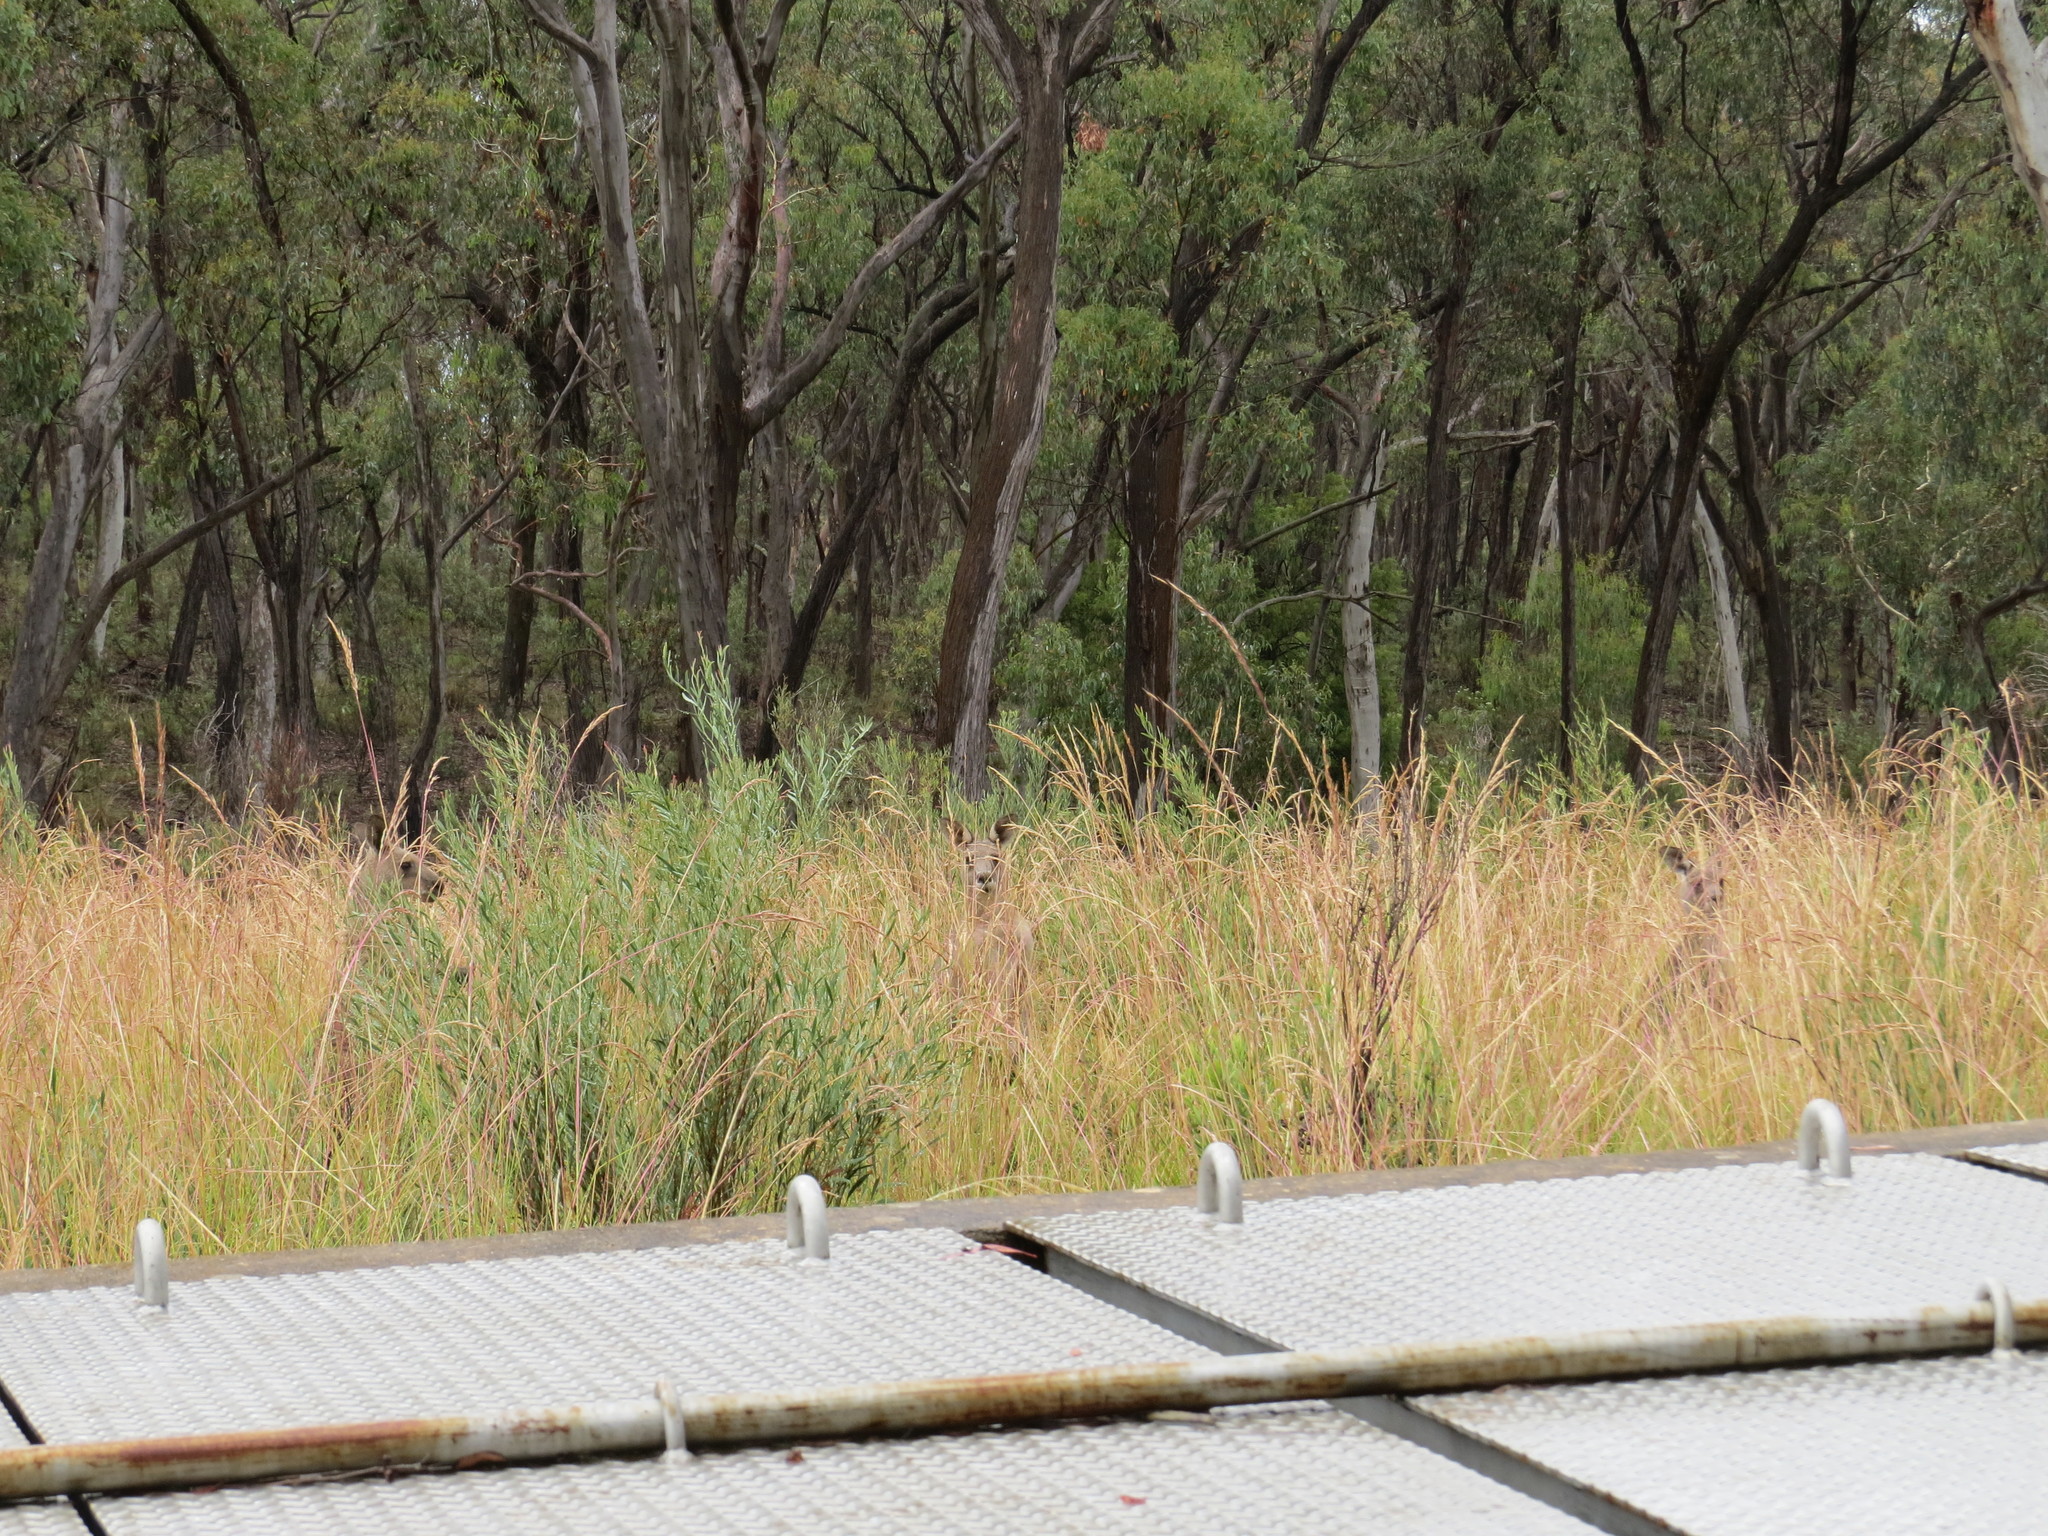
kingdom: Animalia
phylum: Chordata
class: Mammalia
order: Diprotodontia
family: Macropodidae
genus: Macropus
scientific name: Macropus giganteus
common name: Eastern grey kangaroo
